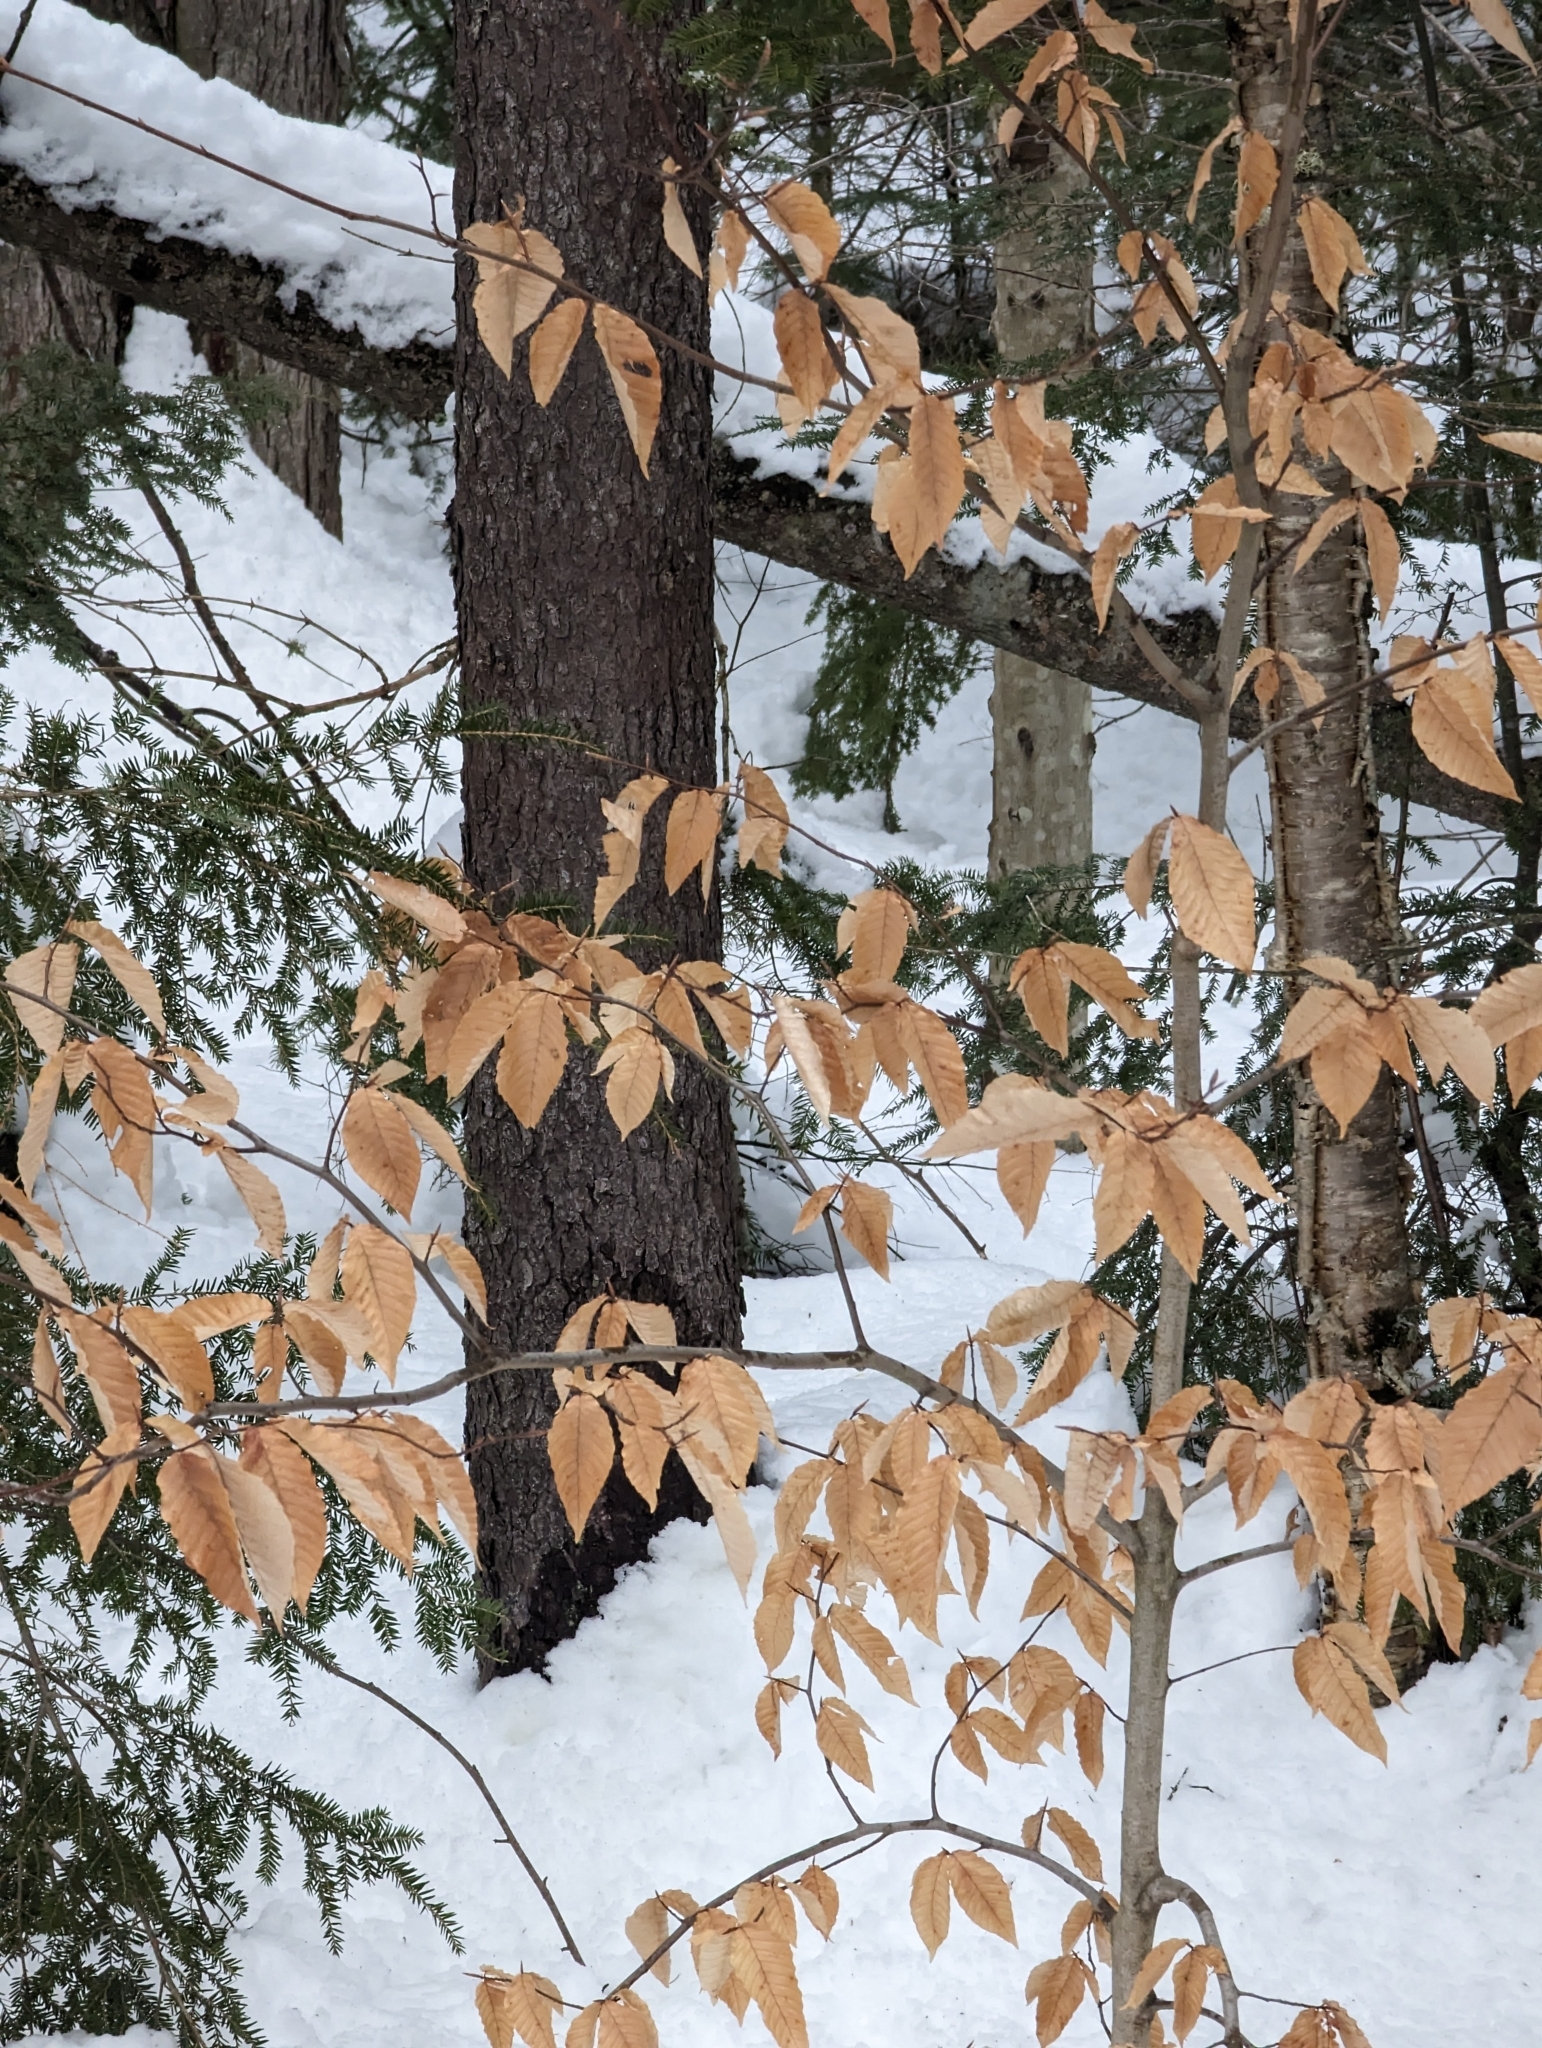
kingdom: Plantae
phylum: Tracheophyta
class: Magnoliopsida
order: Fagales
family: Fagaceae
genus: Fagus
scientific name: Fagus grandifolia
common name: American beech
